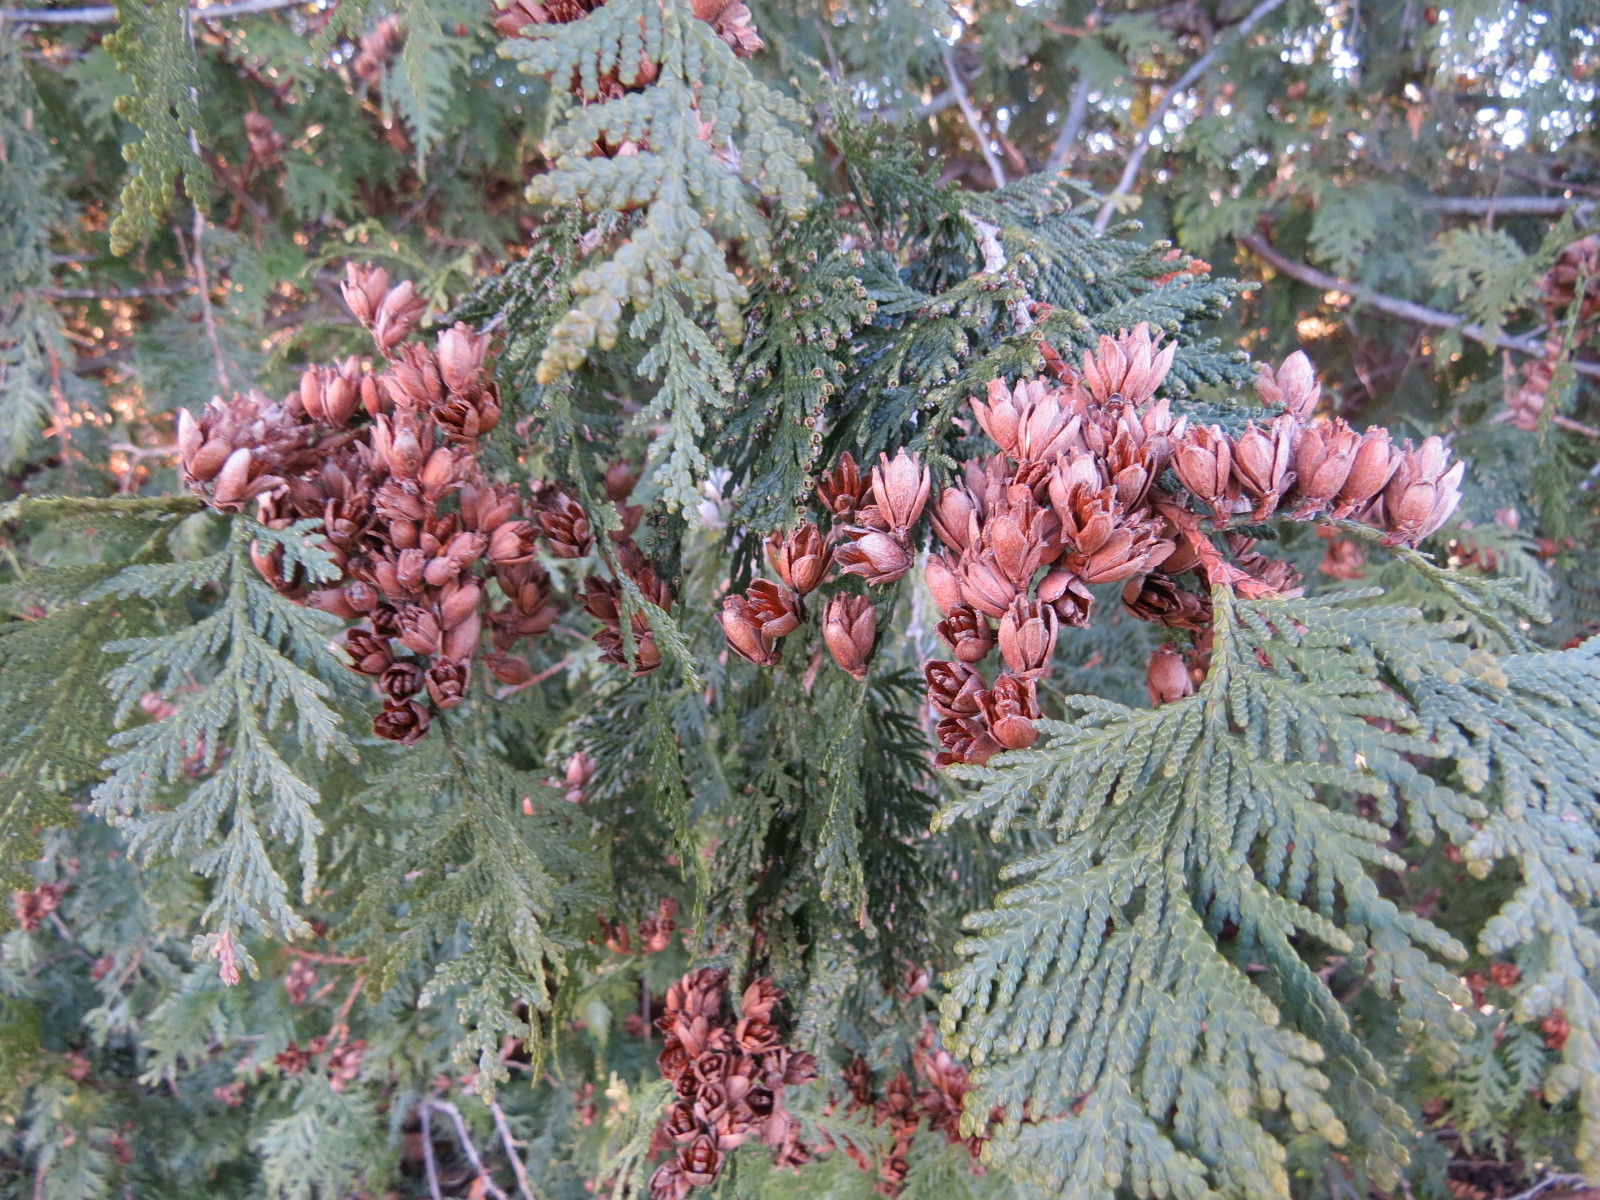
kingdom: Plantae
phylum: Tracheophyta
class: Pinopsida
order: Pinales
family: Cupressaceae
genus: Thuja
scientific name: Thuja occidentalis
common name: Northern white-cedar
